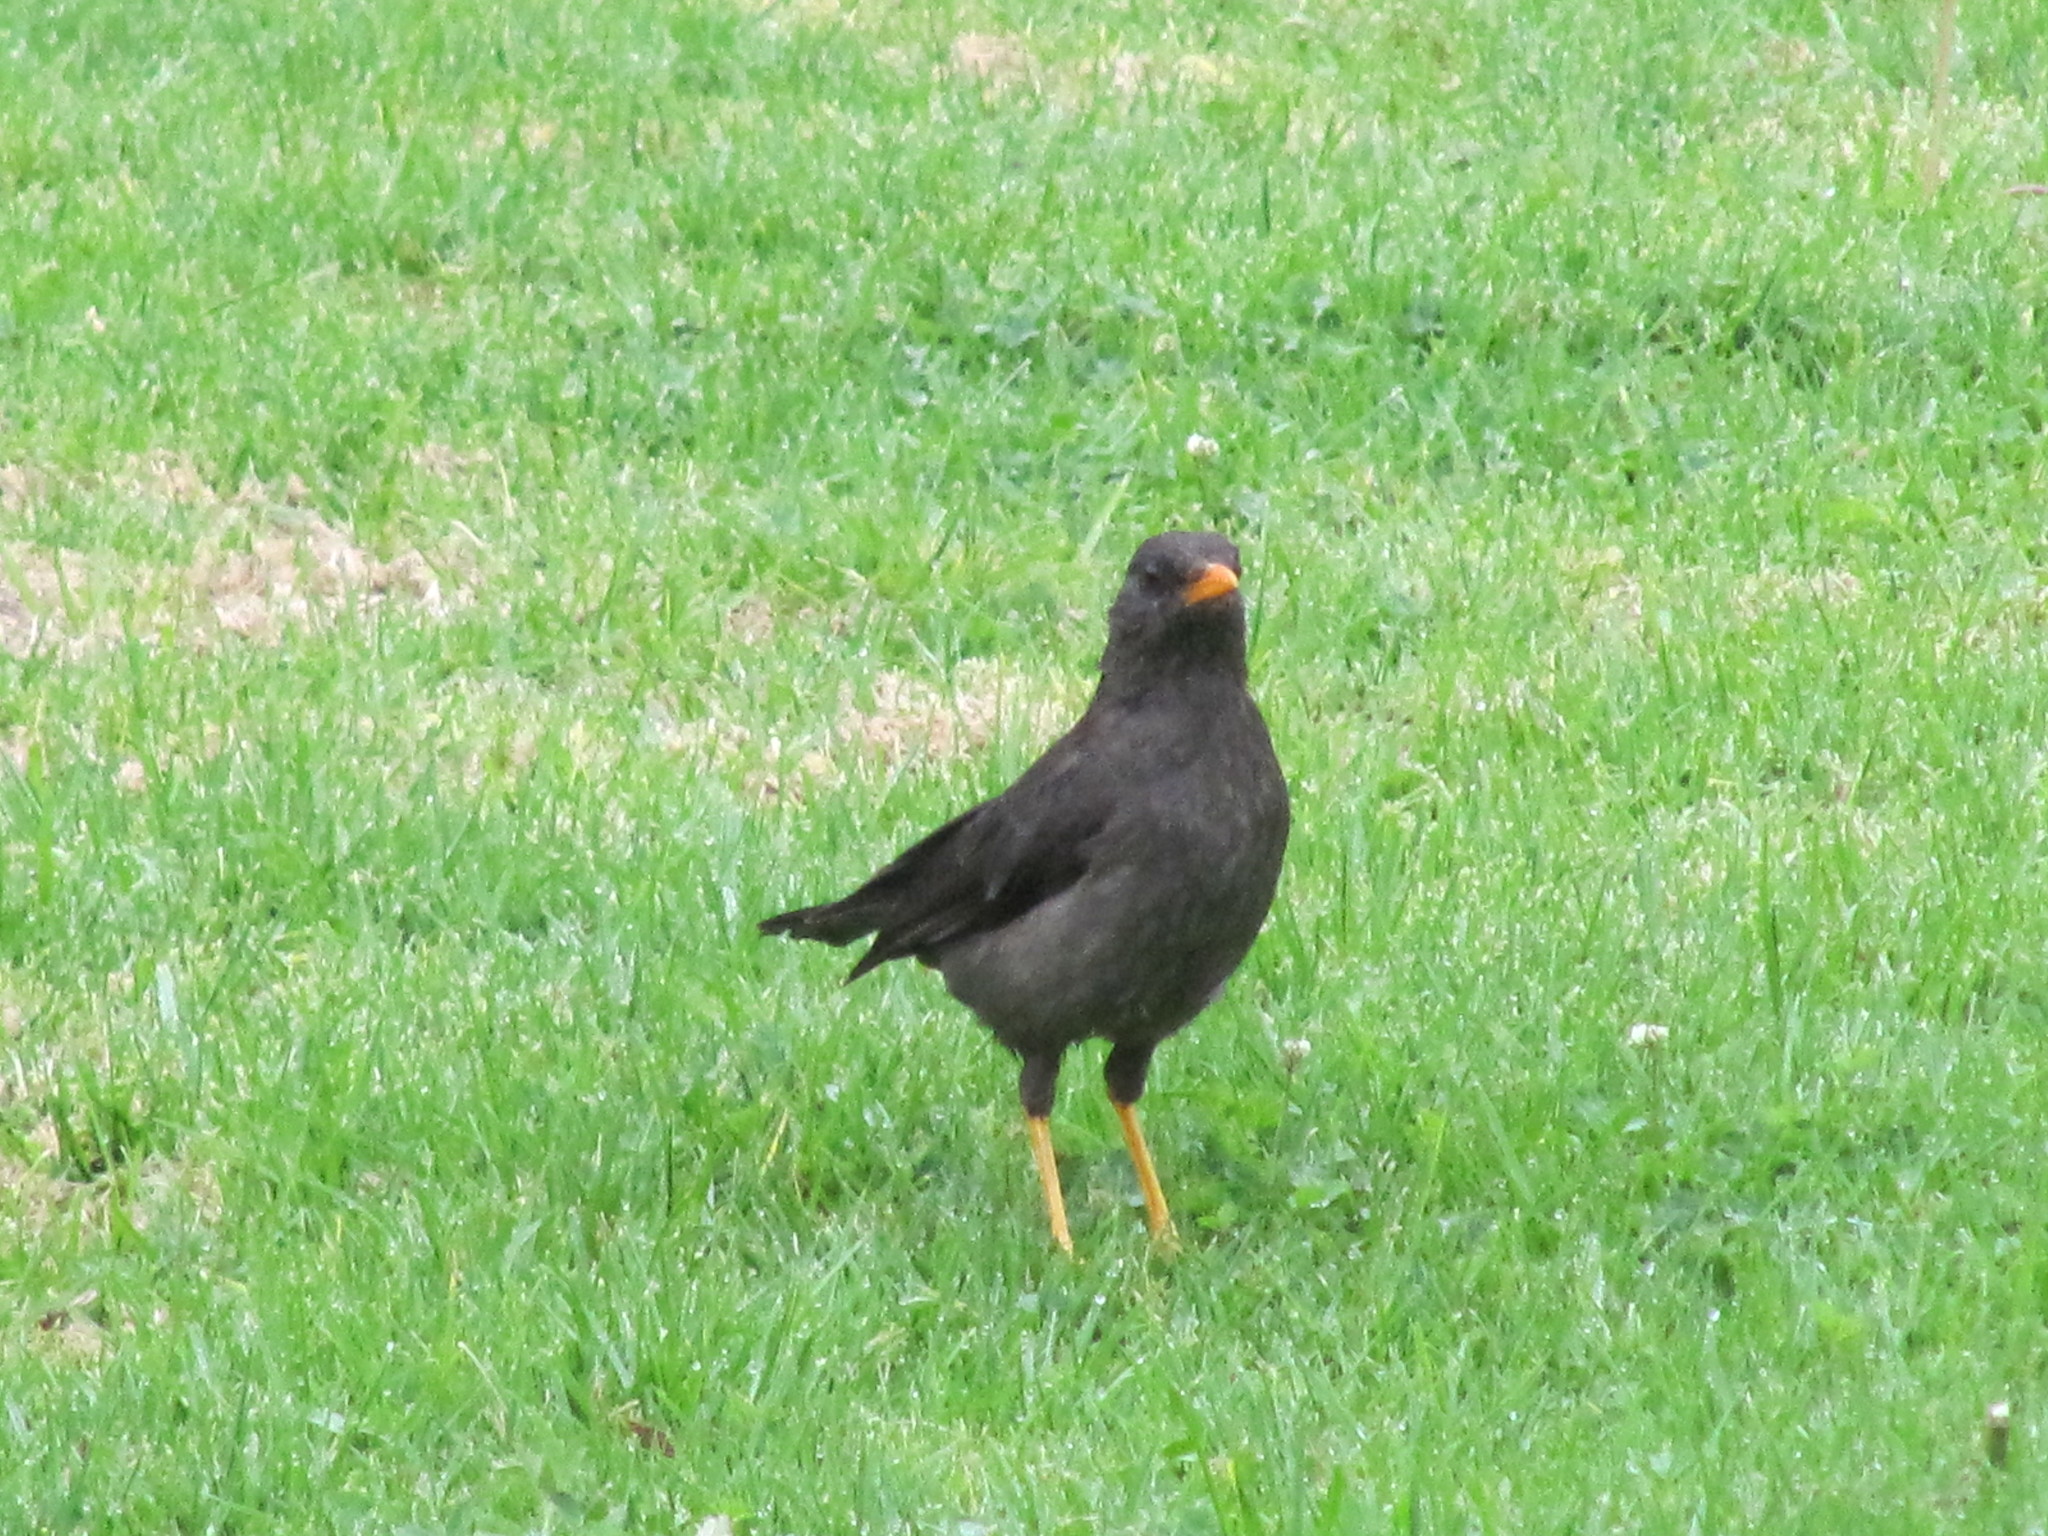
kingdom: Animalia
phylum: Chordata
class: Aves
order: Passeriformes
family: Turdidae
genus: Turdus
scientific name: Turdus fuscater
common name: Great thrush
